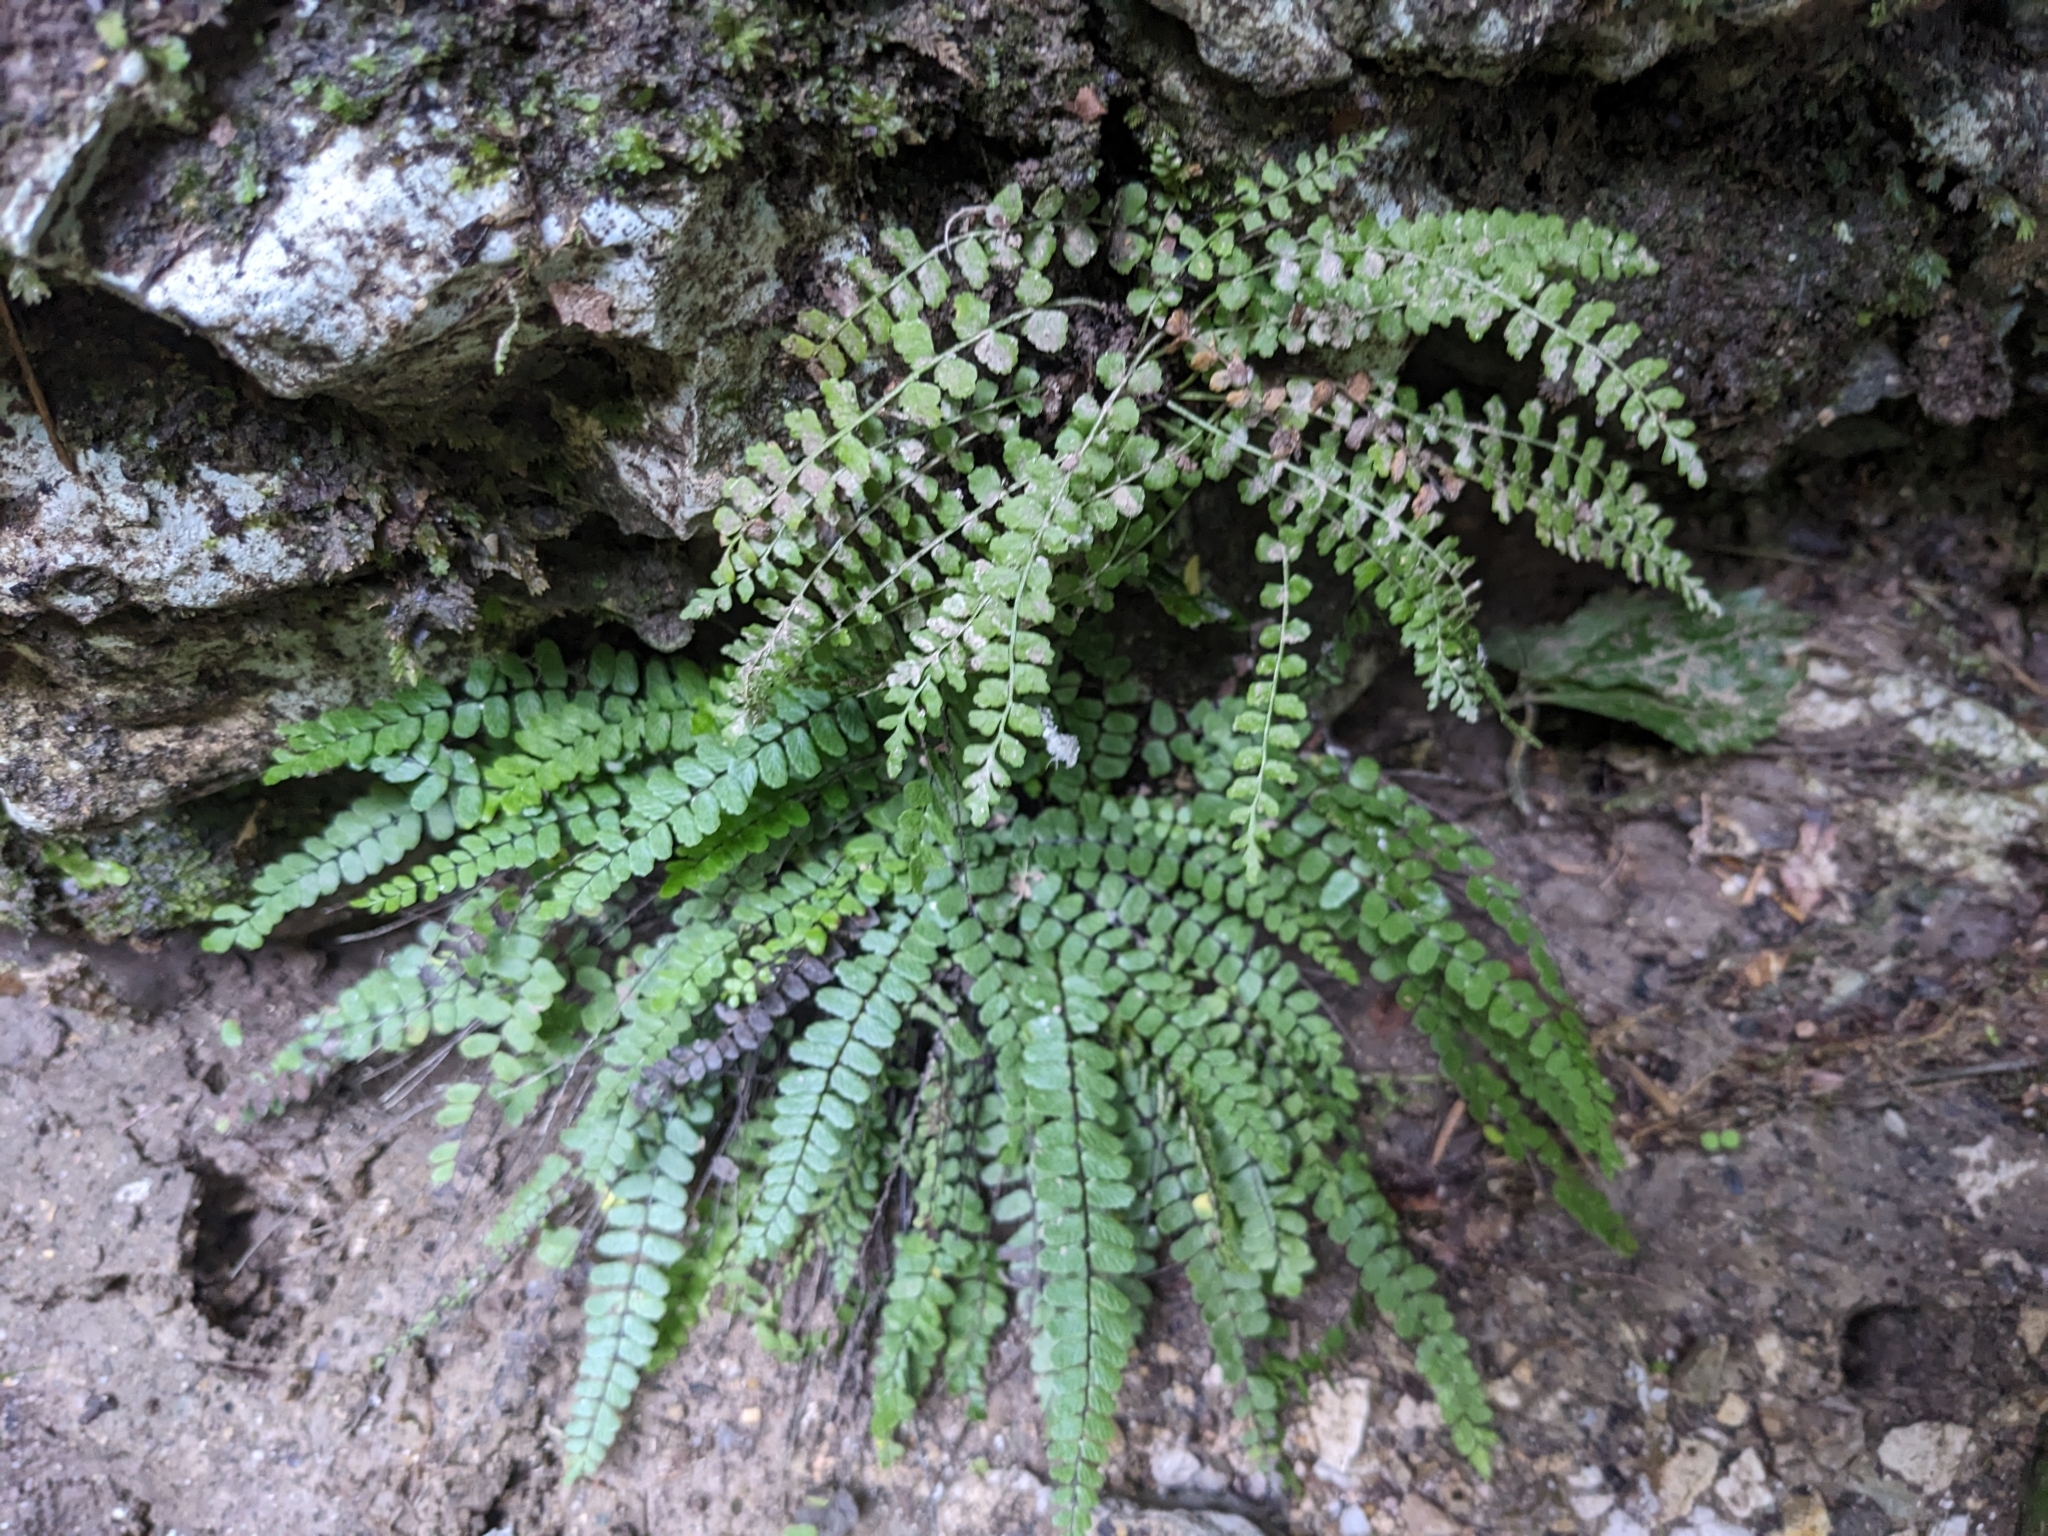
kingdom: Plantae
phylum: Tracheophyta
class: Polypodiopsida
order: Polypodiales
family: Aspleniaceae
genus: Asplenium
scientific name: Asplenium viride
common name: Green spleenwort
